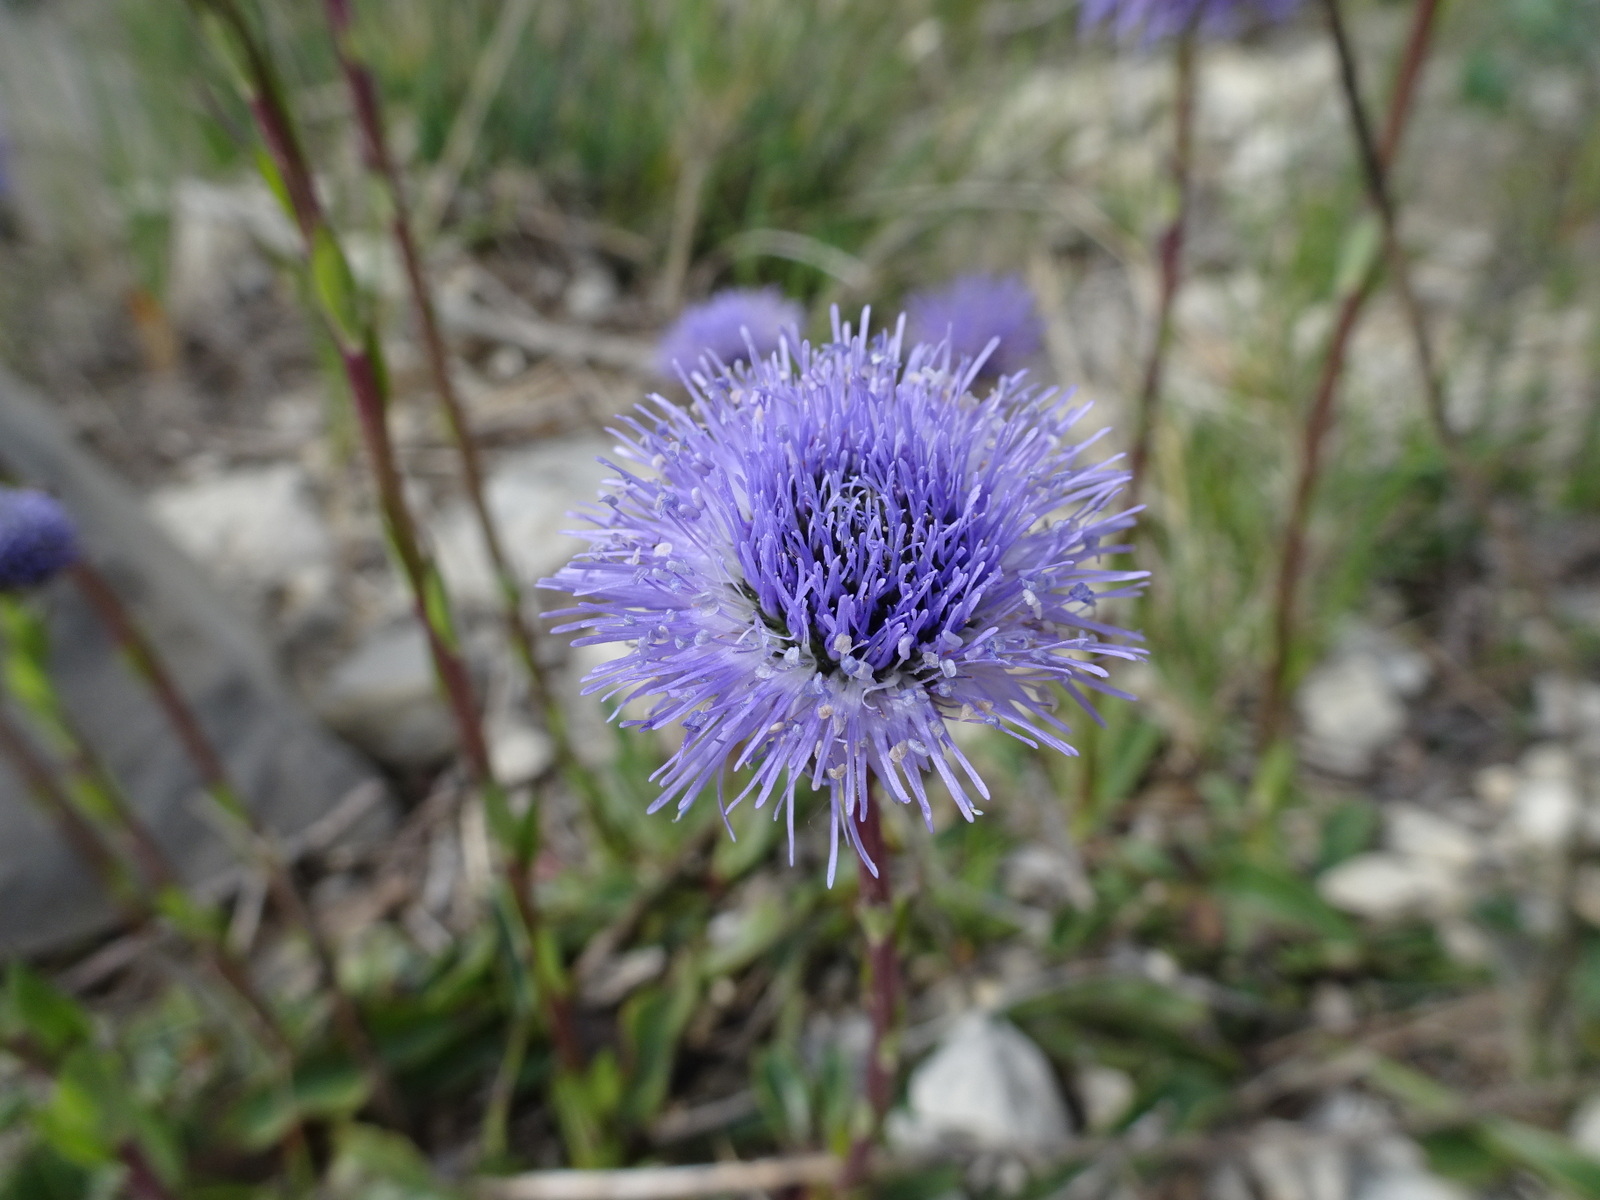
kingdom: Plantae
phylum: Tracheophyta
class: Magnoliopsida
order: Lamiales
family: Plantaginaceae
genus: Globularia
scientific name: Globularia vulgaris
